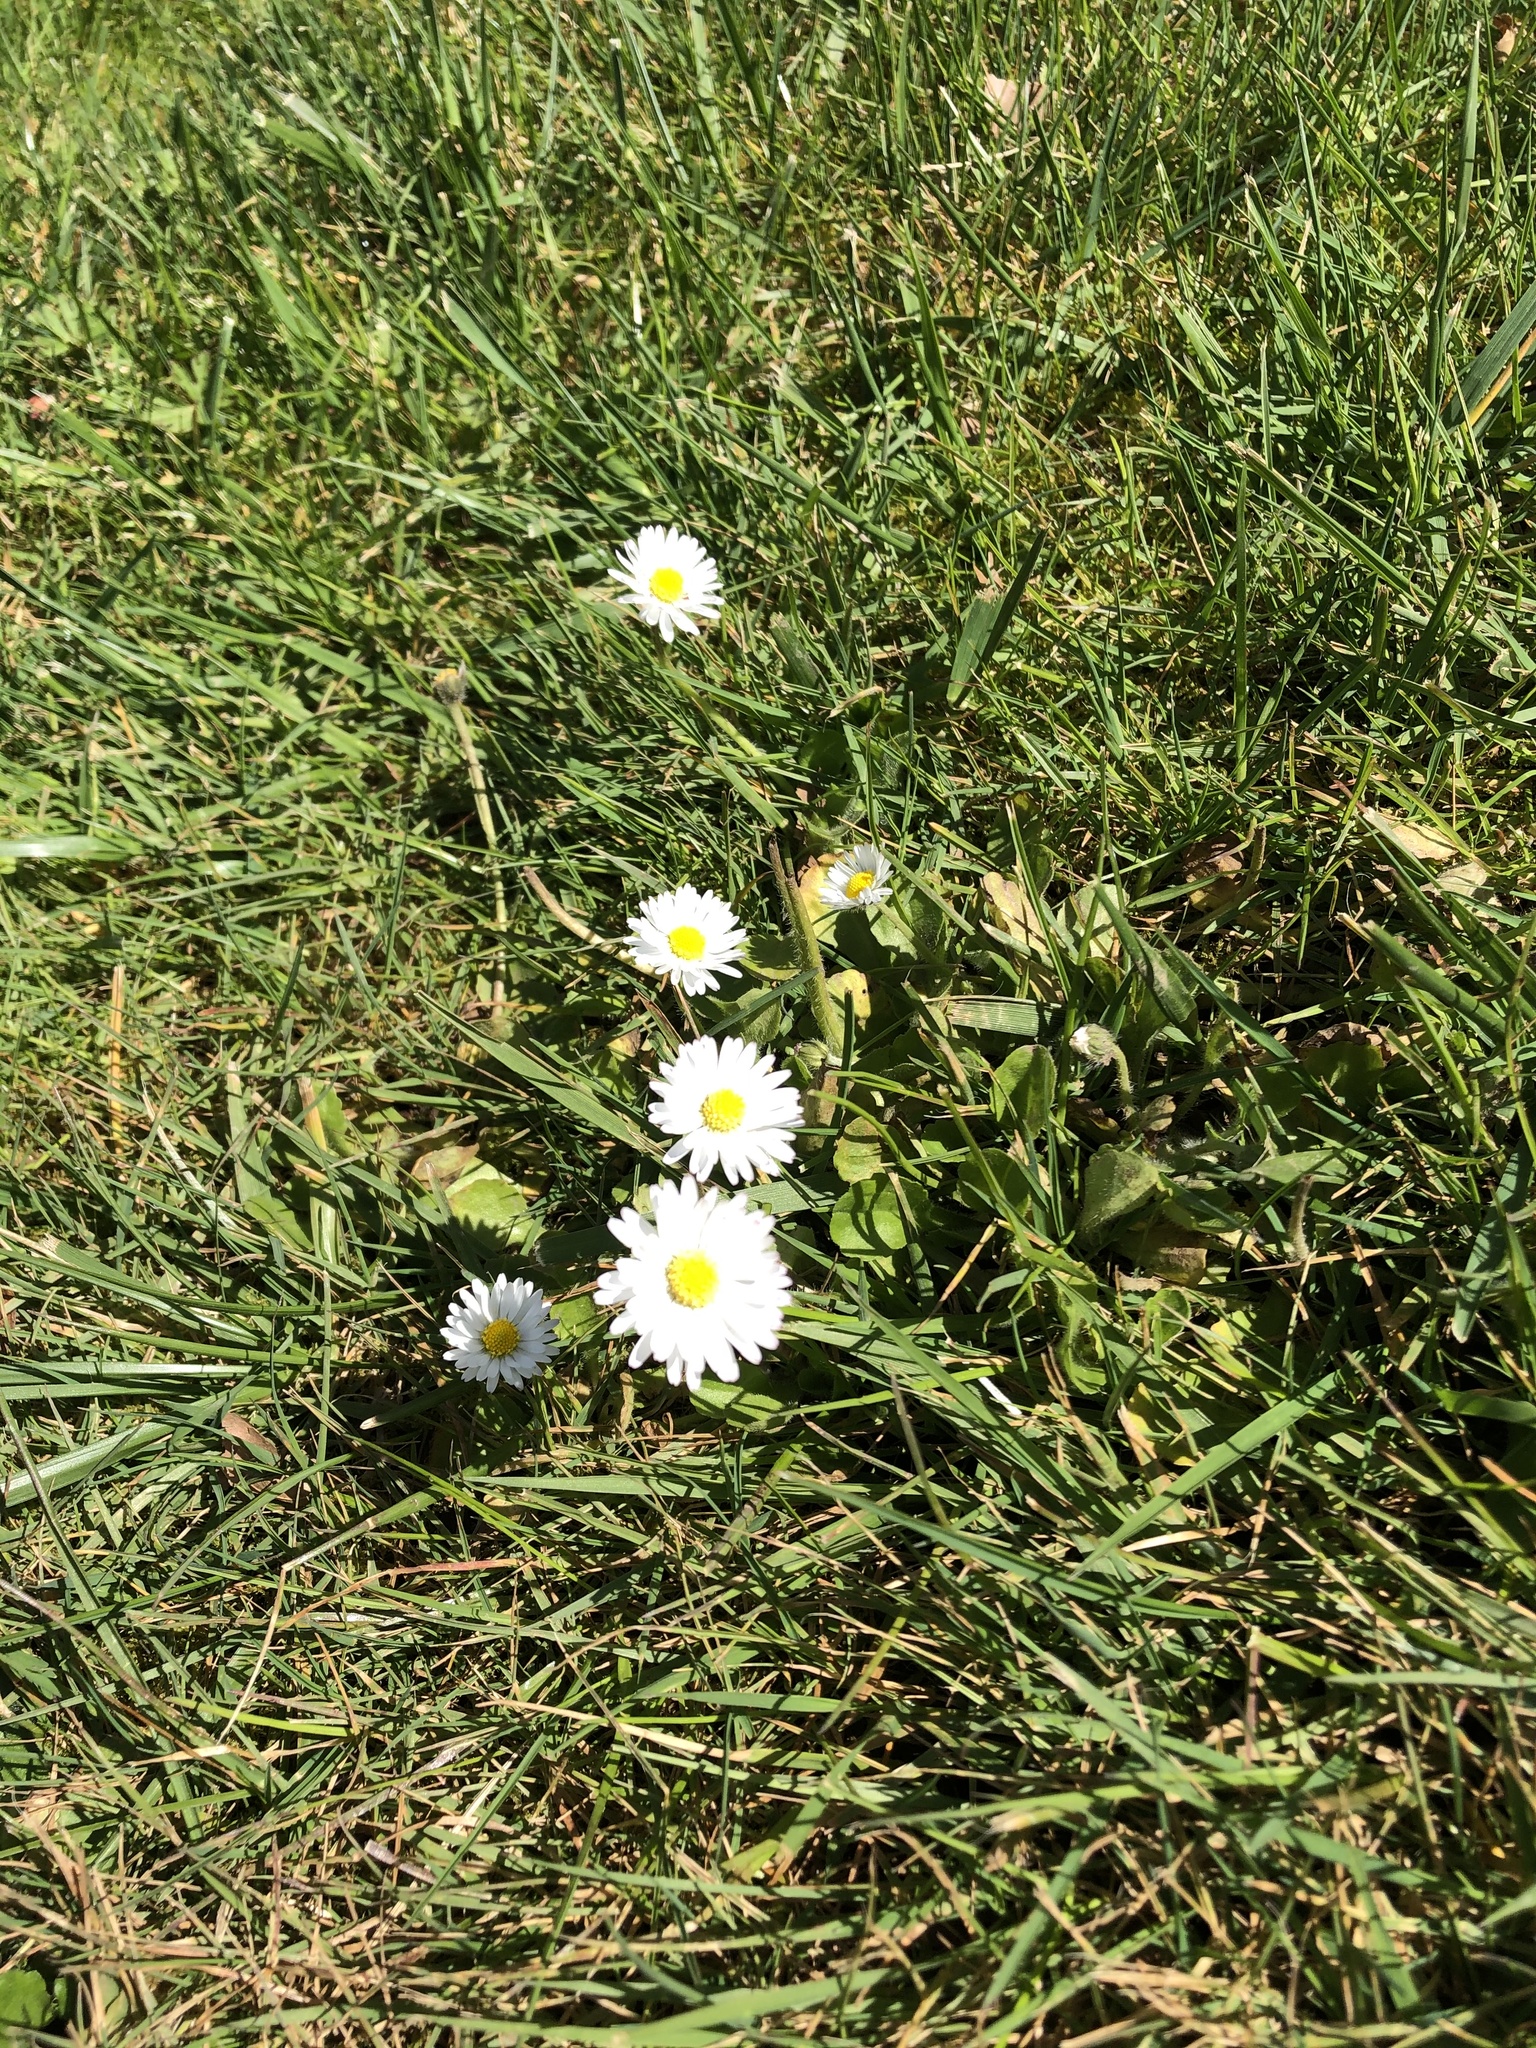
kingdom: Plantae
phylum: Tracheophyta
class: Magnoliopsida
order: Asterales
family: Asteraceae
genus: Bellis
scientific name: Bellis perennis
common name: Lawndaisy
